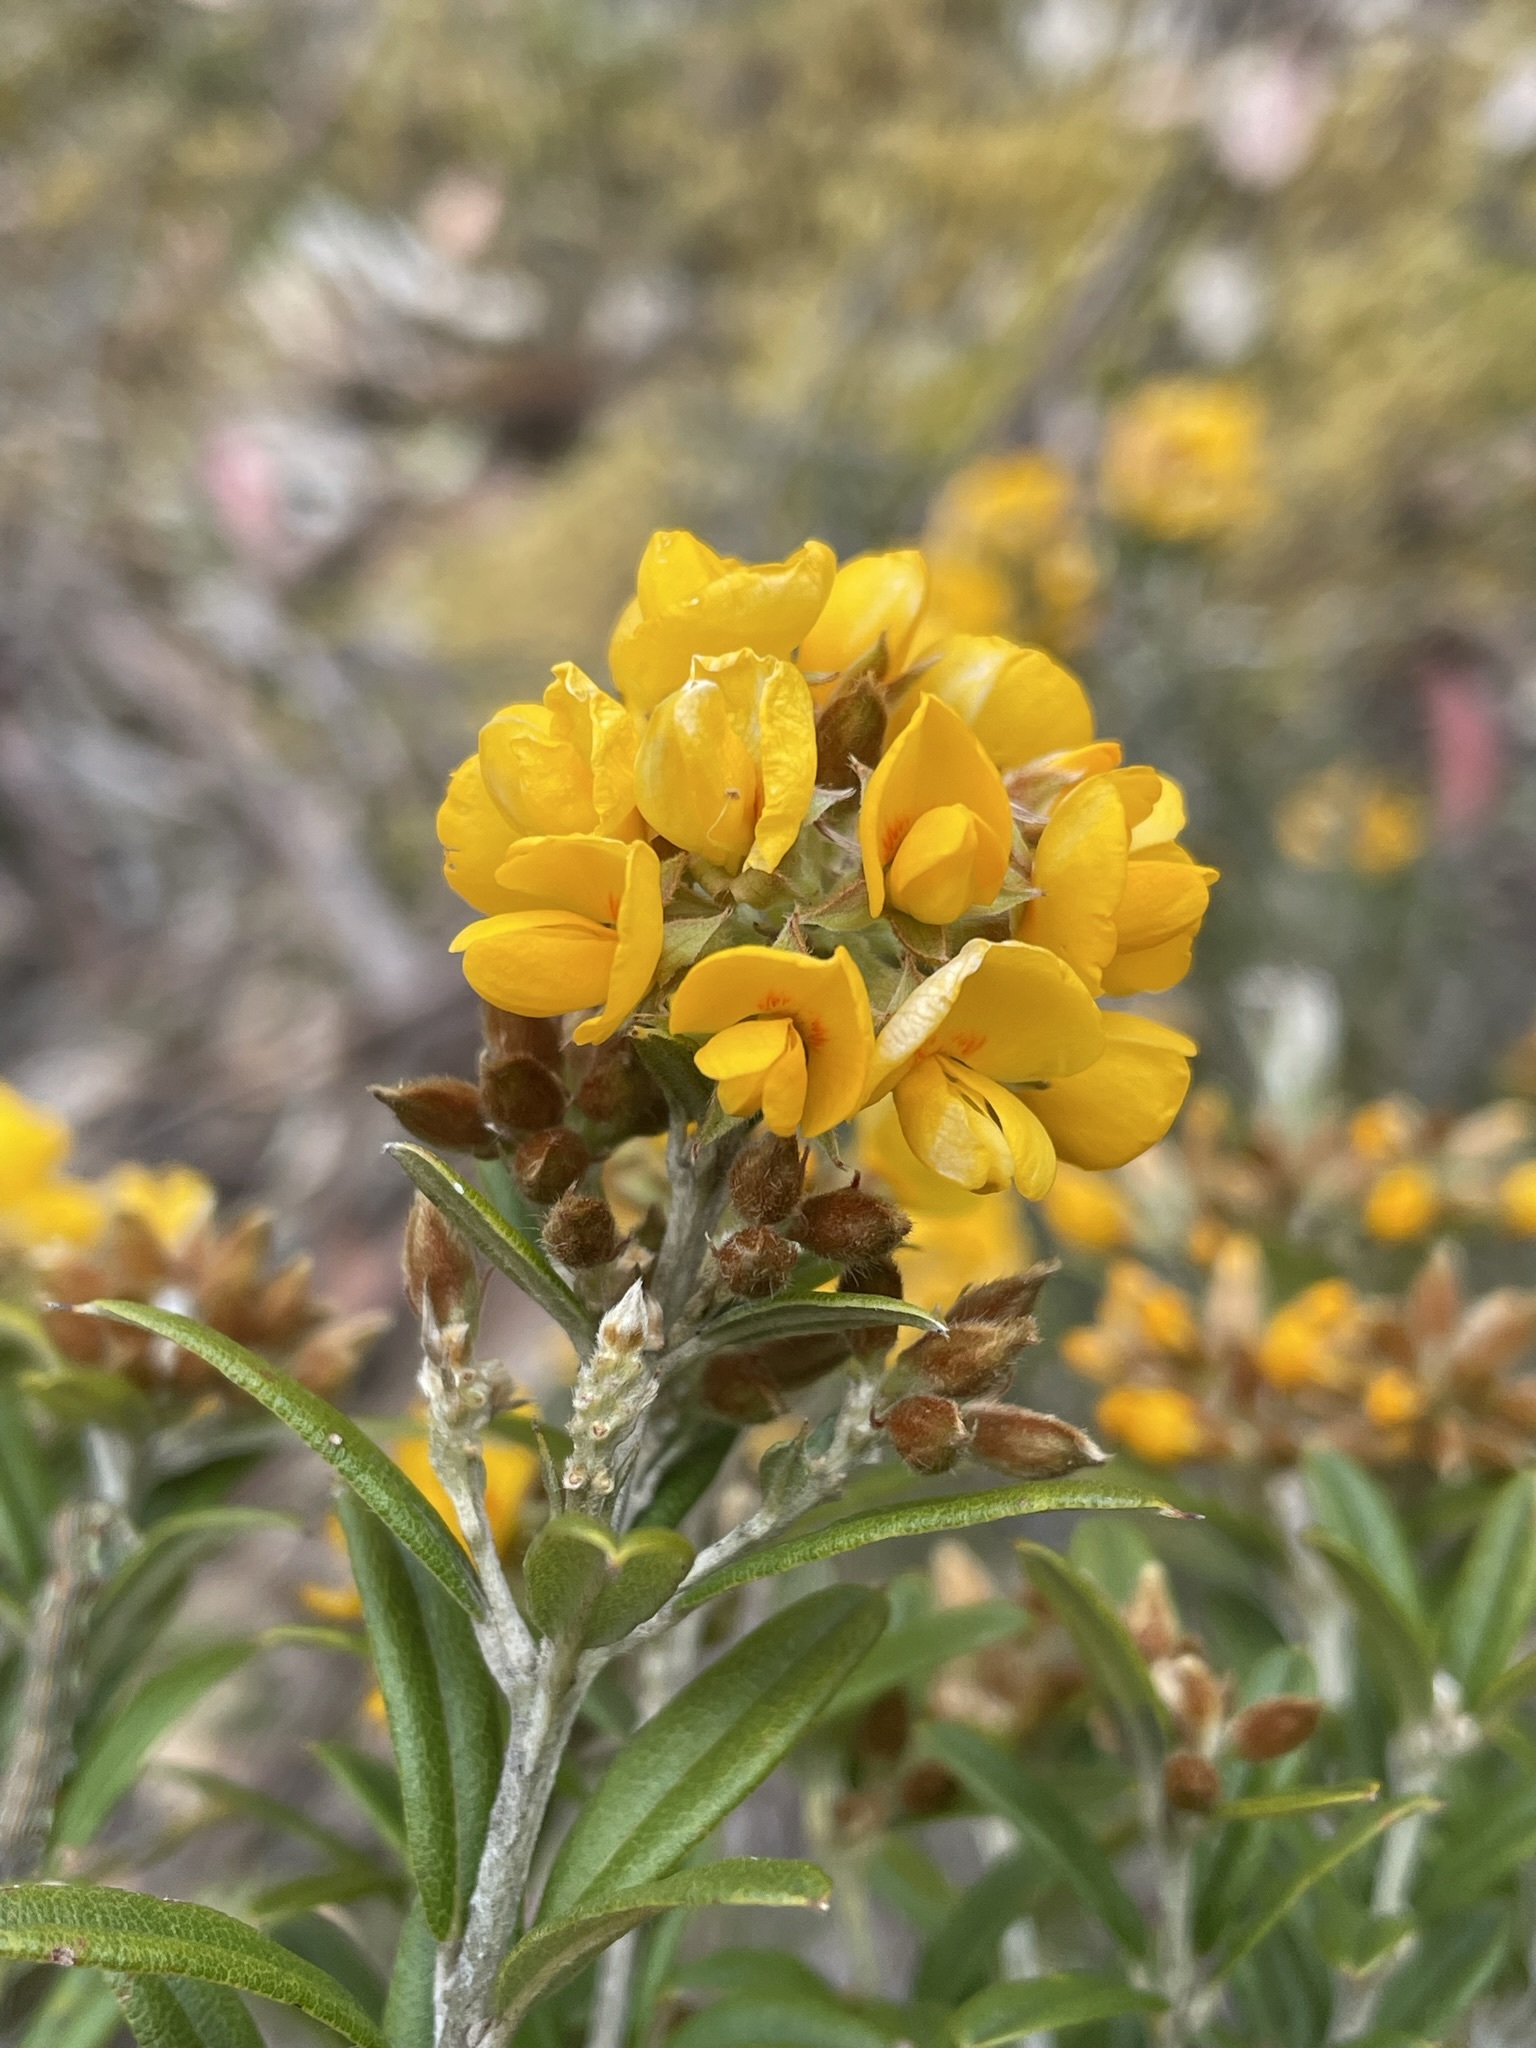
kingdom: Plantae
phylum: Tracheophyta
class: Magnoliopsida
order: Fabales
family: Fabaceae
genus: Oxylobium
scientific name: Oxylobium ellipticum
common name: Golden shaggy-pea
